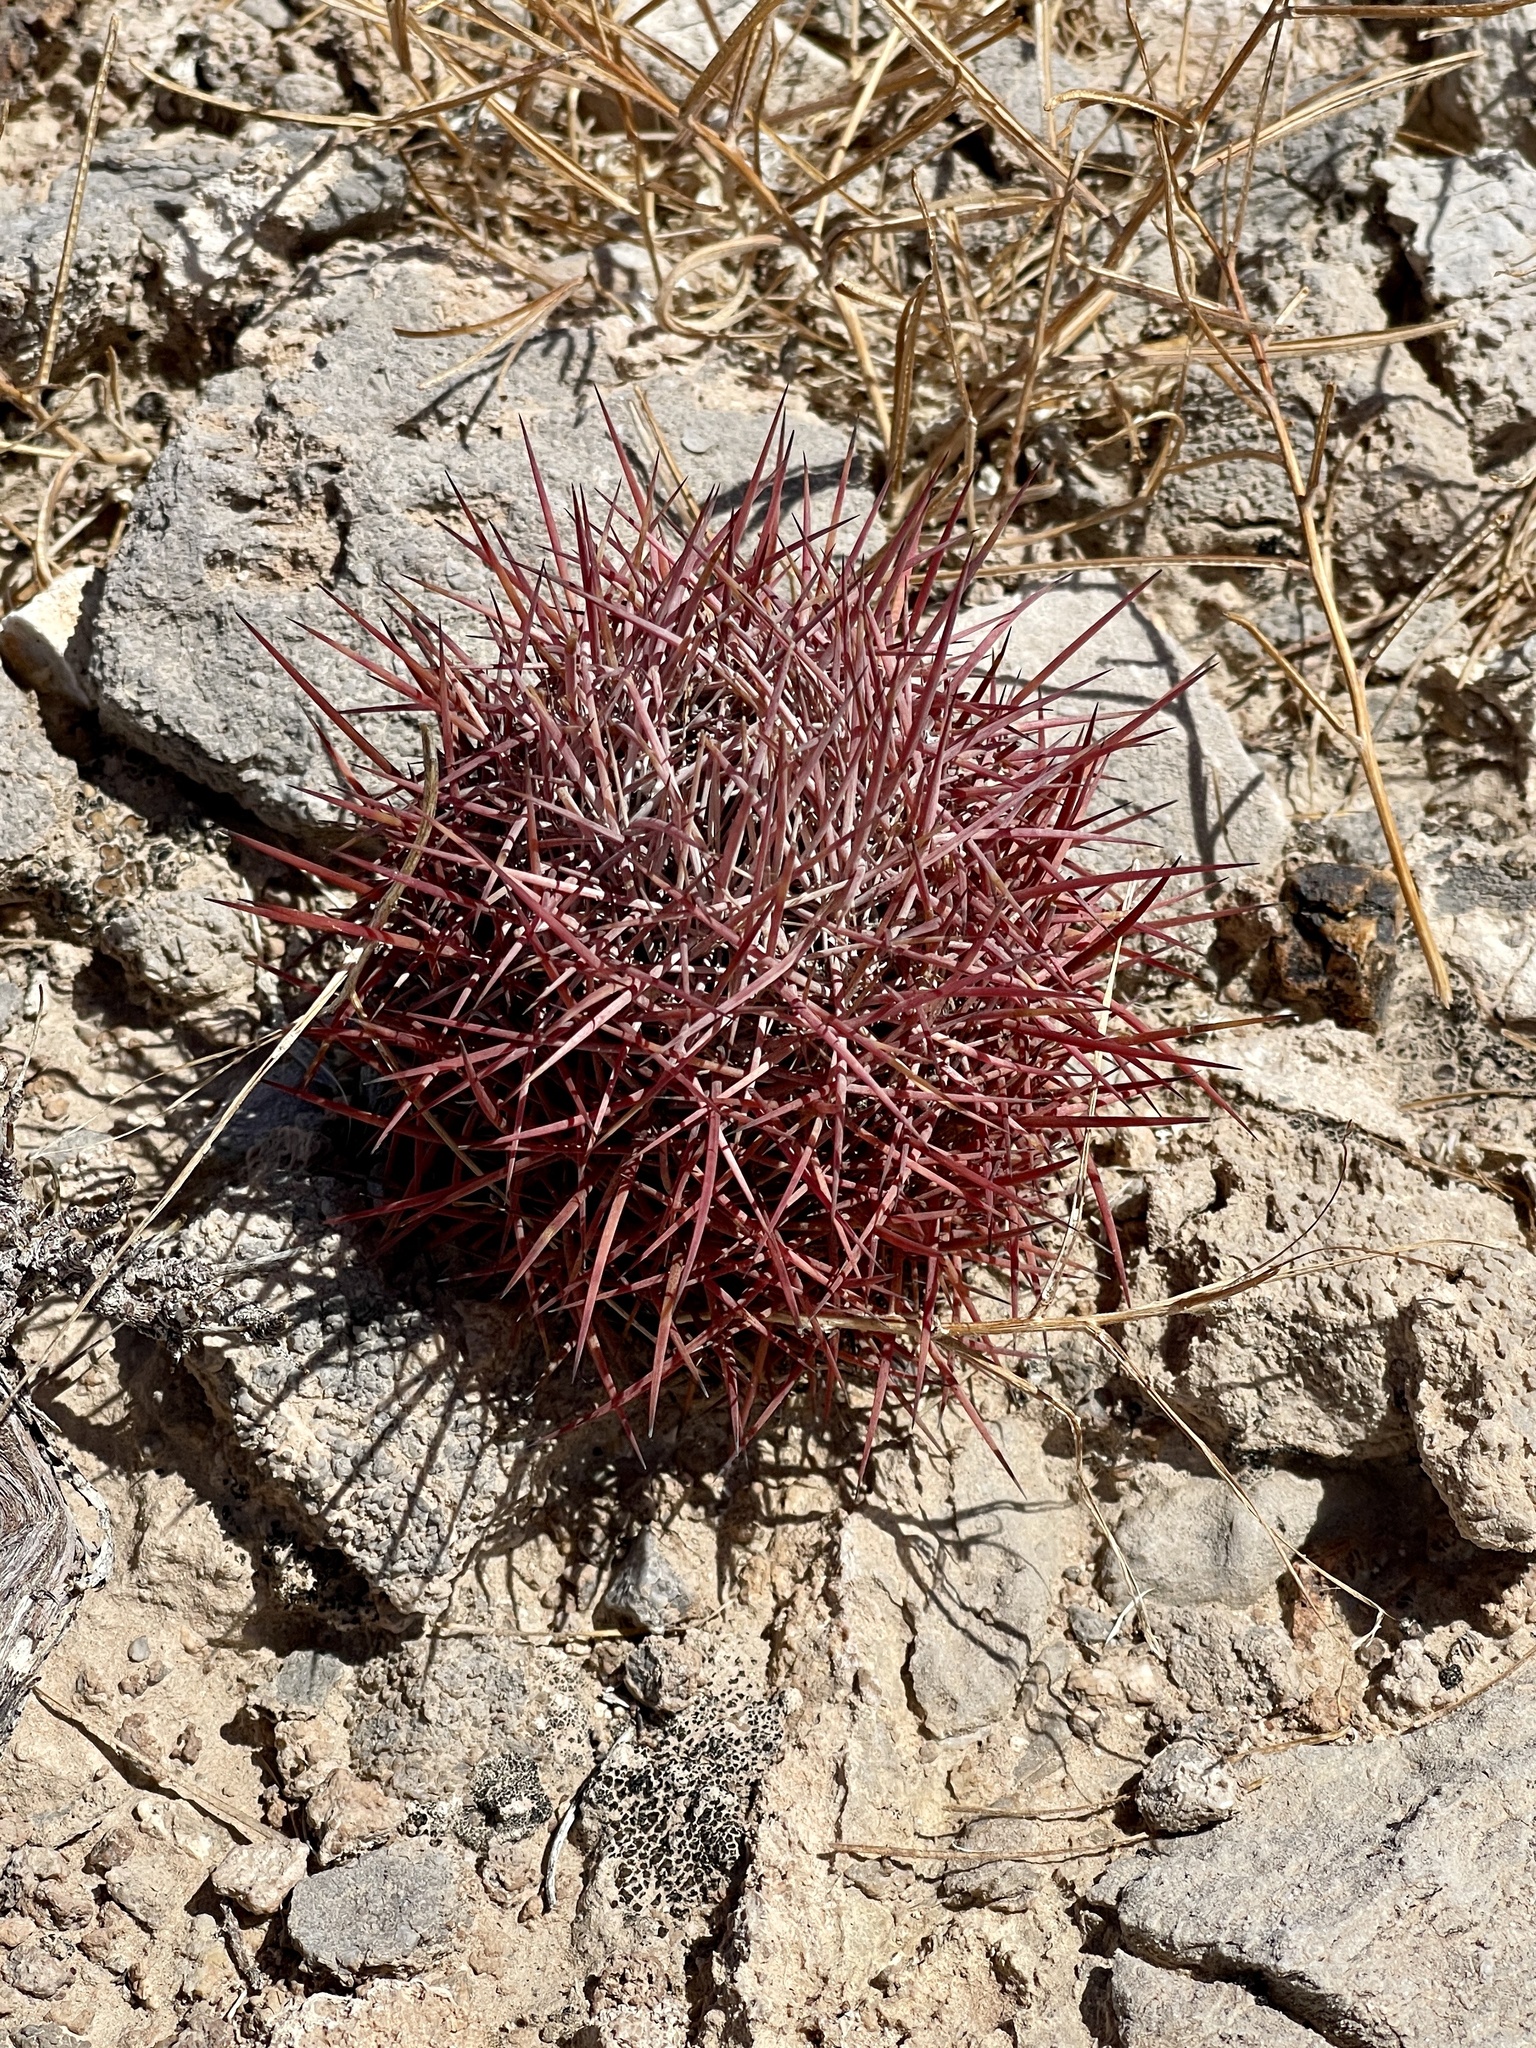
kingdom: Plantae
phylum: Tracheophyta
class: Magnoliopsida
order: Caryophyllales
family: Cactaceae
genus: Sclerocactus
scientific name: Sclerocactus johnsonii
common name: Eight-spine fishhook cactus
